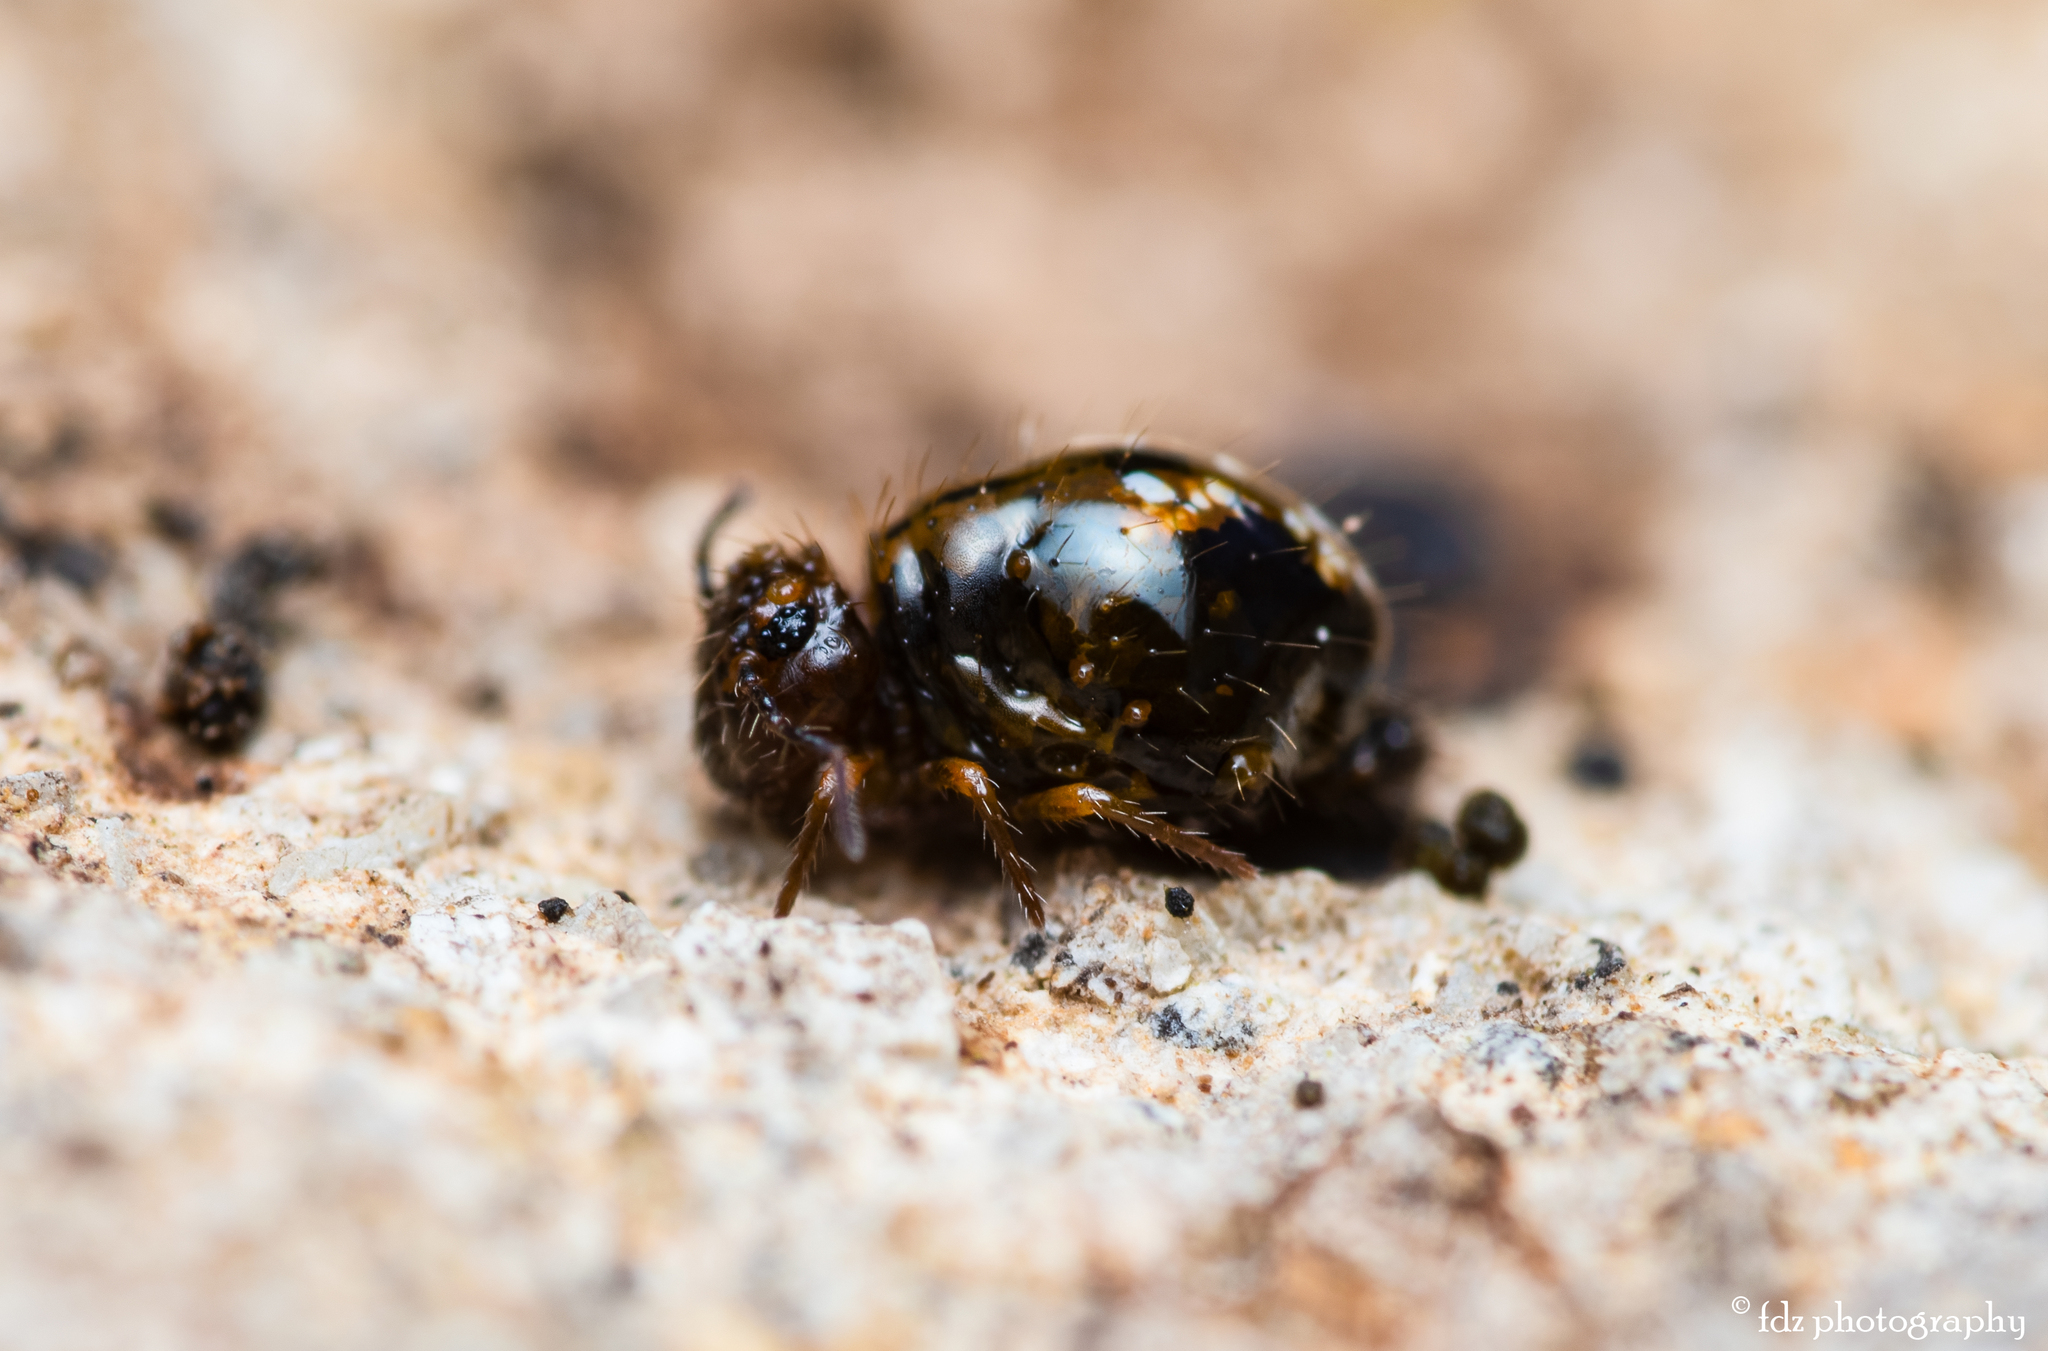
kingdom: Animalia
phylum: Arthropoda
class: Collembola
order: Symphypleona
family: Sminthuridae
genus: Allacma
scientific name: Allacma fusca
